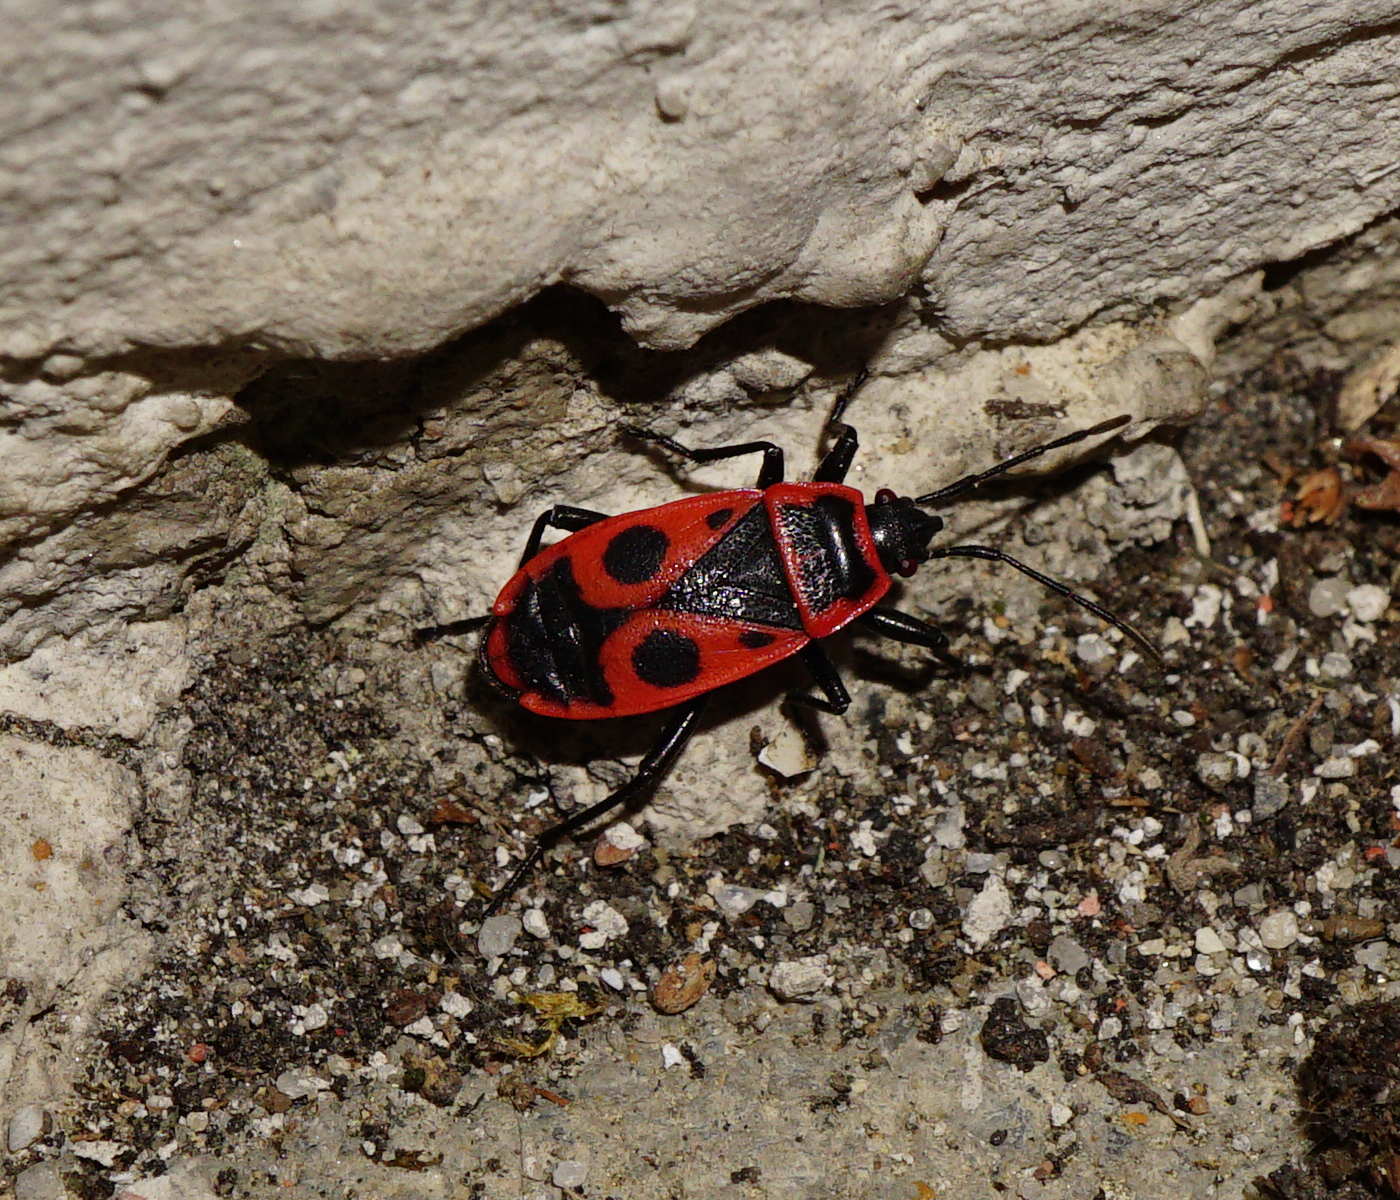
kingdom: Animalia
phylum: Arthropoda
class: Insecta
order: Hemiptera
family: Pyrrhocoridae
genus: Pyrrhocoris
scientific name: Pyrrhocoris apterus
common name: Firebug
